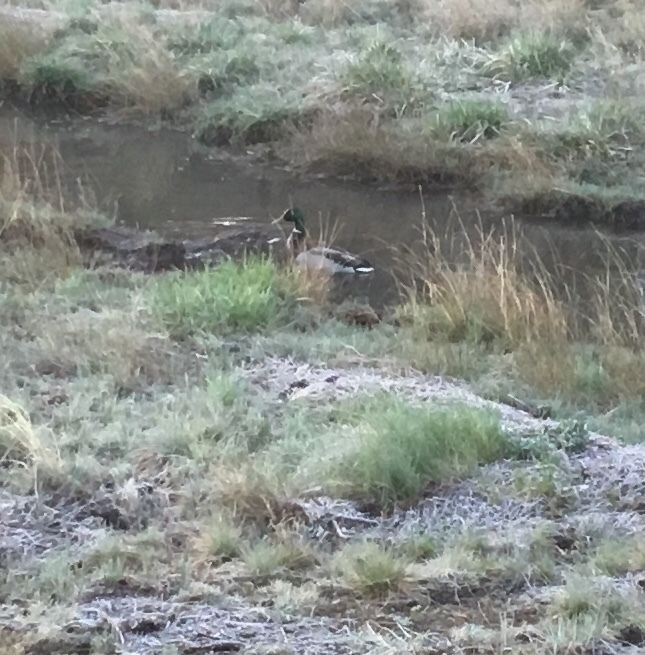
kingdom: Animalia
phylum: Chordata
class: Aves
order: Anseriformes
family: Anatidae
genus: Anas
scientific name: Anas platyrhynchos
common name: Mallard
